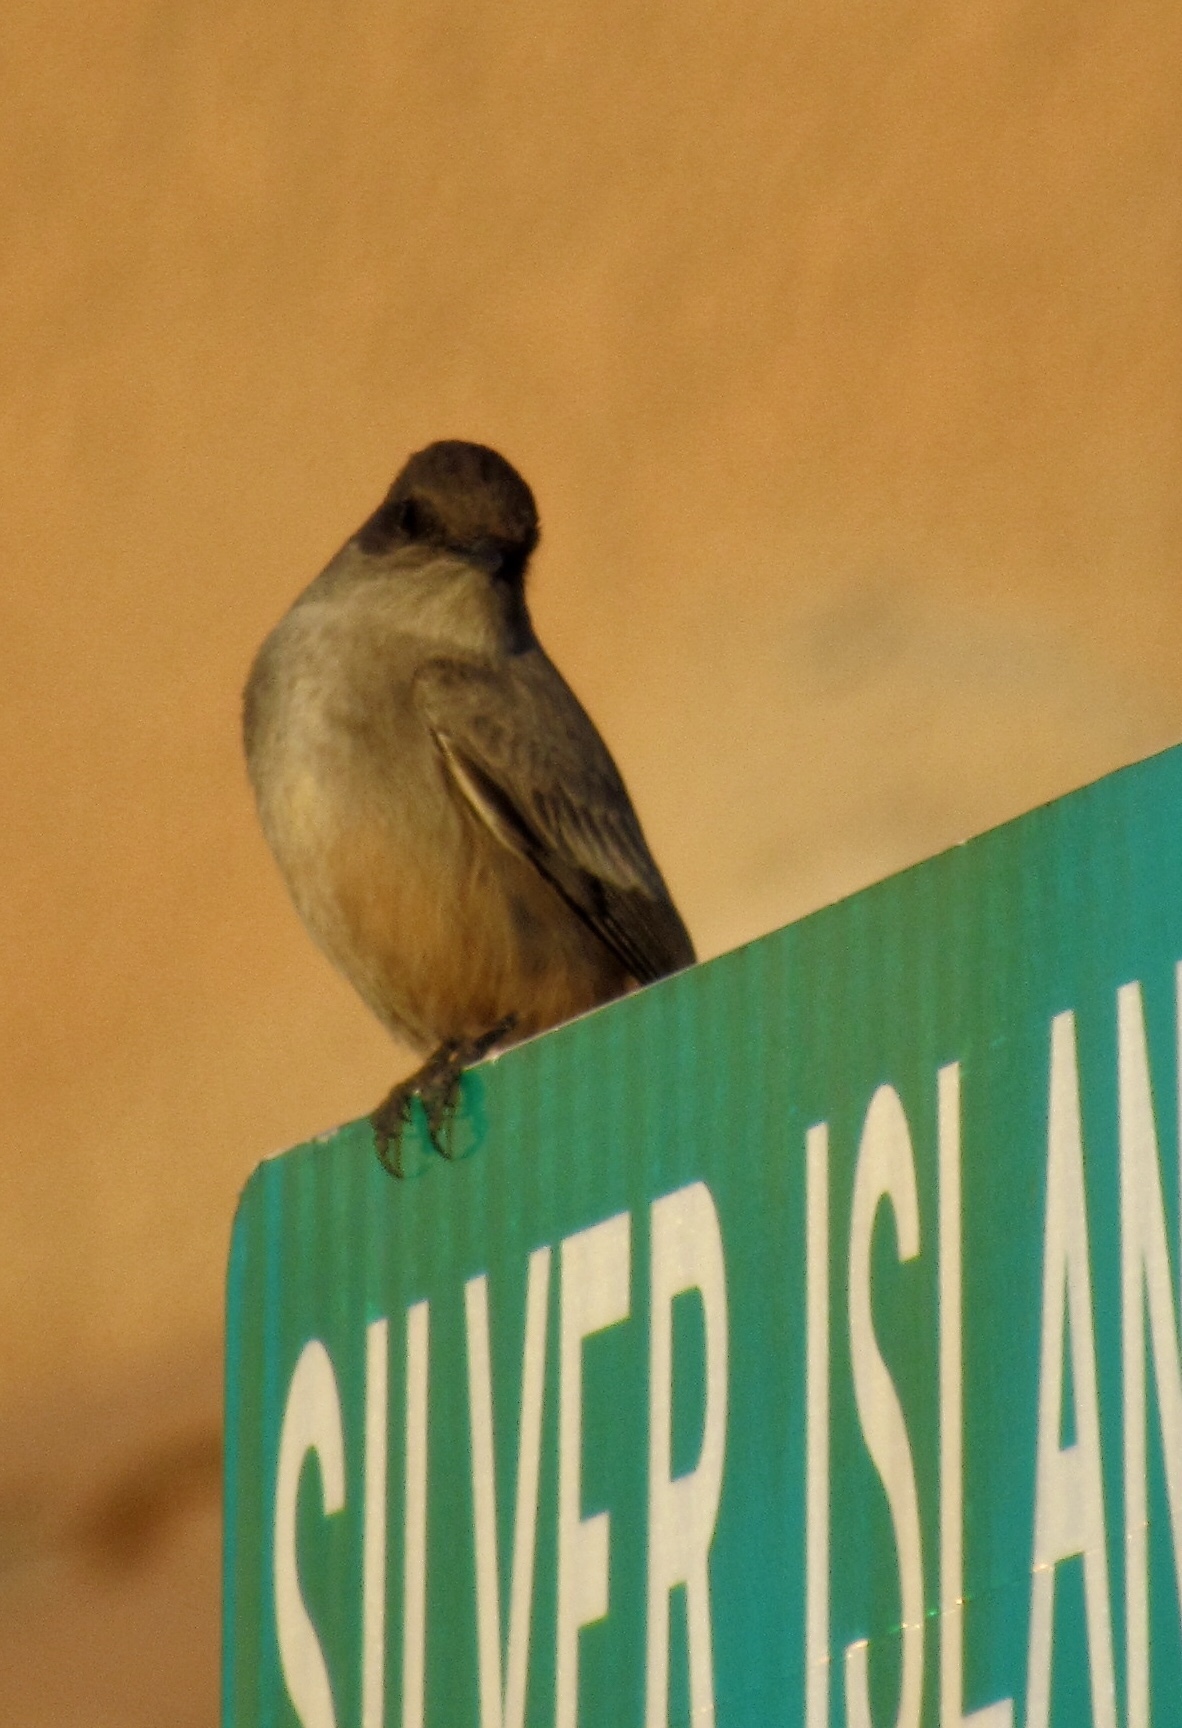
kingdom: Animalia
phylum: Chordata
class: Aves
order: Passeriformes
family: Tyrannidae
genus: Sayornis
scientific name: Sayornis saya
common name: Say's phoebe
